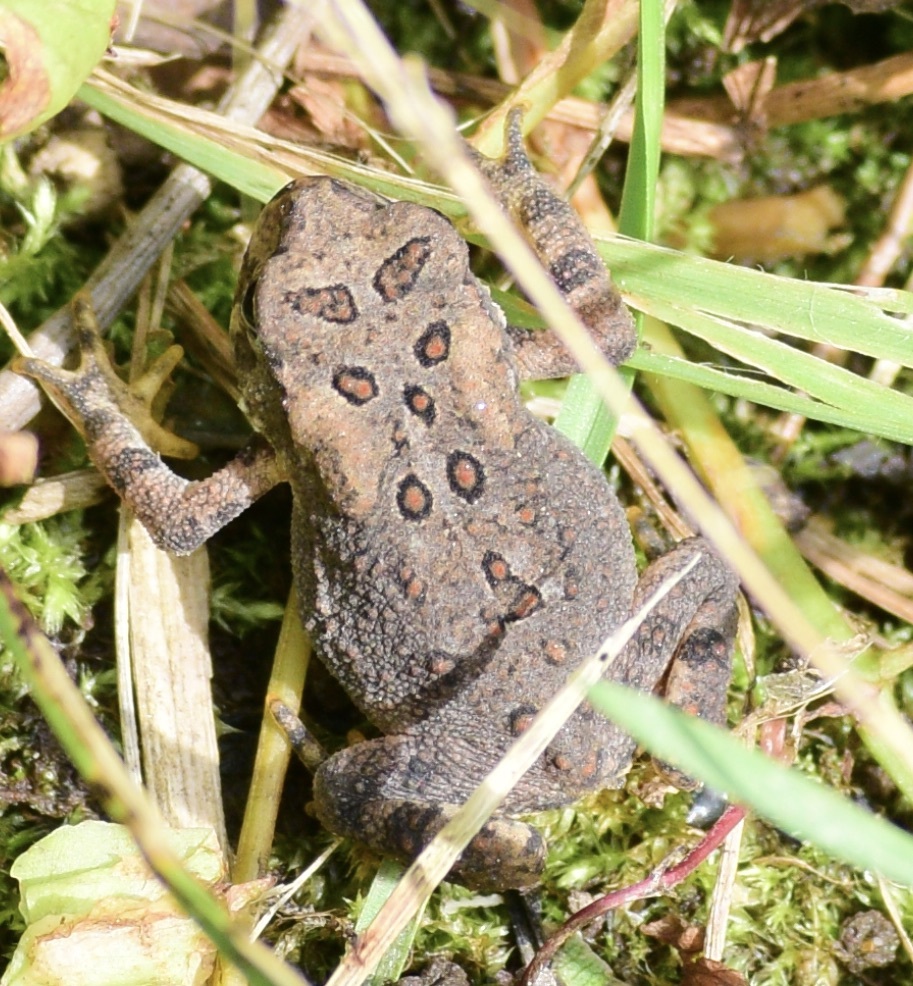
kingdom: Animalia
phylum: Chordata
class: Amphibia
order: Anura
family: Bufonidae
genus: Anaxyrus
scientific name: Anaxyrus americanus
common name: American toad
